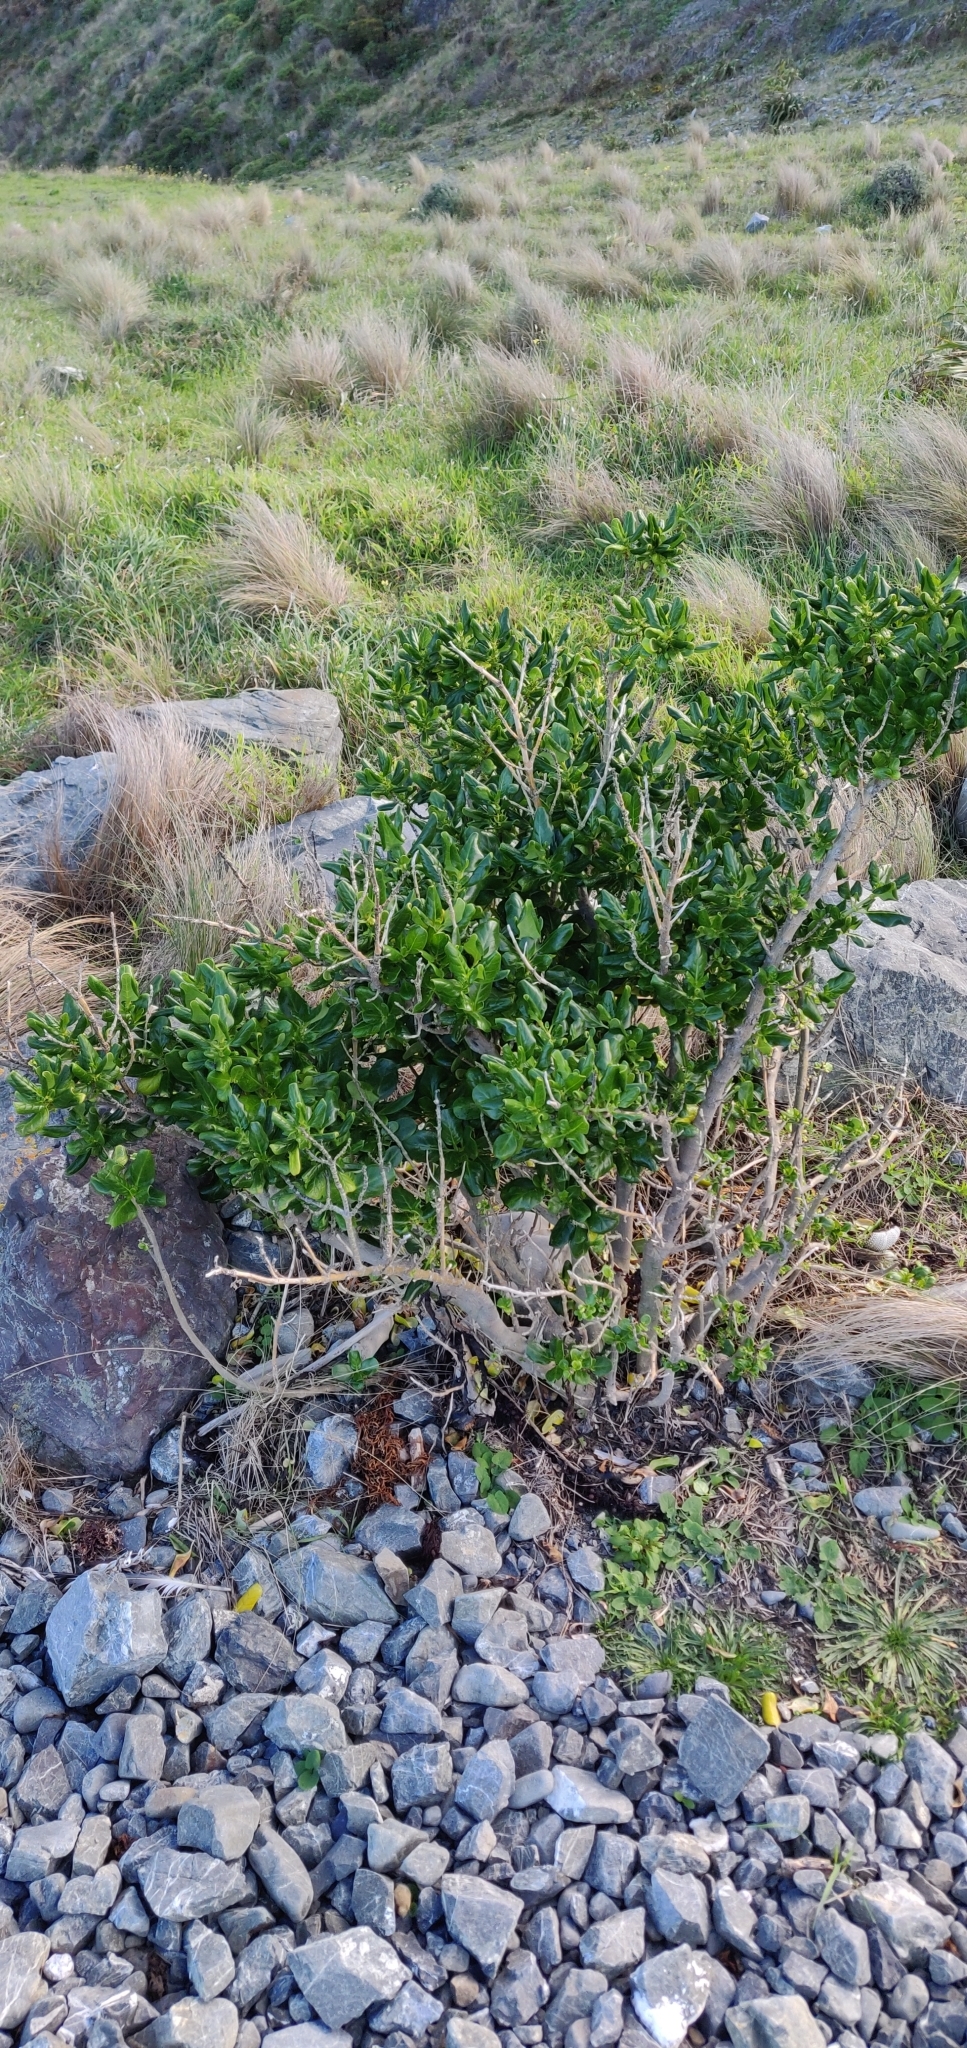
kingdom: Plantae
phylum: Tracheophyta
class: Magnoliopsida
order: Gentianales
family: Rubiaceae
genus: Coprosma
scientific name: Coprosma repens
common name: Tree bedstraw
